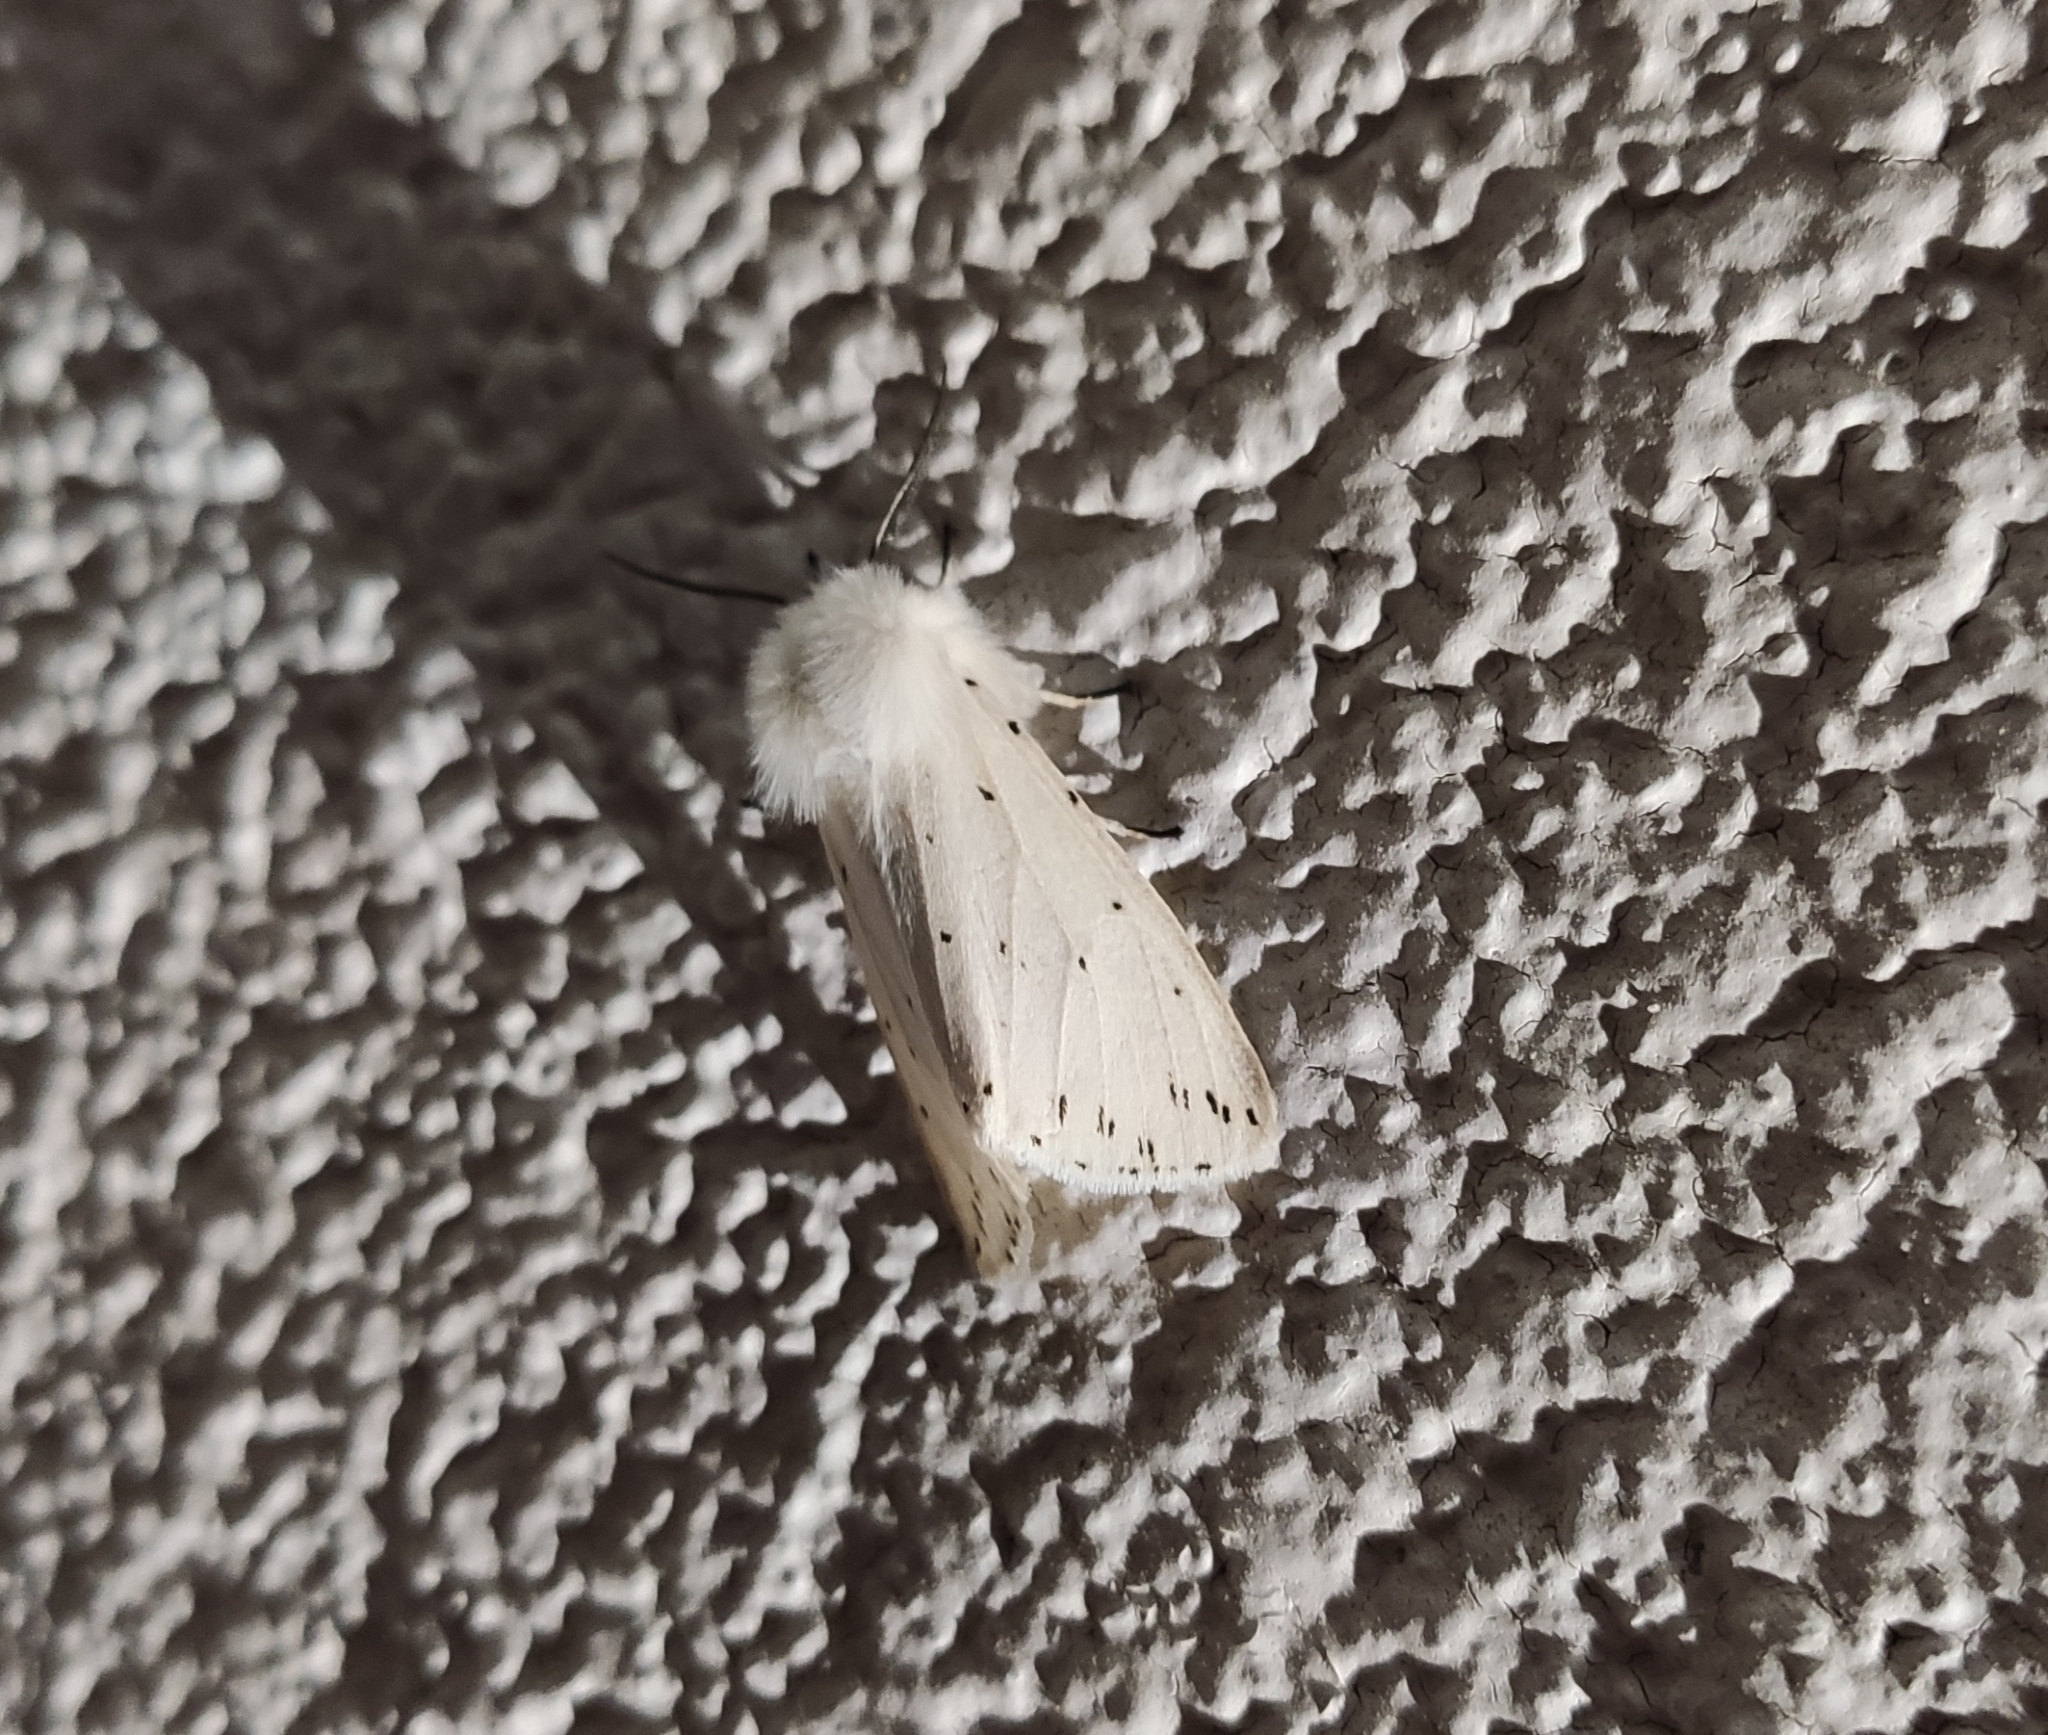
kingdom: Animalia
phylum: Arthropoda
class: Insecta
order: Lepidoptera
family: Erebidae
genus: Spilosoma
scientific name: Spilosoma lubricipeda
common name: White ermine
